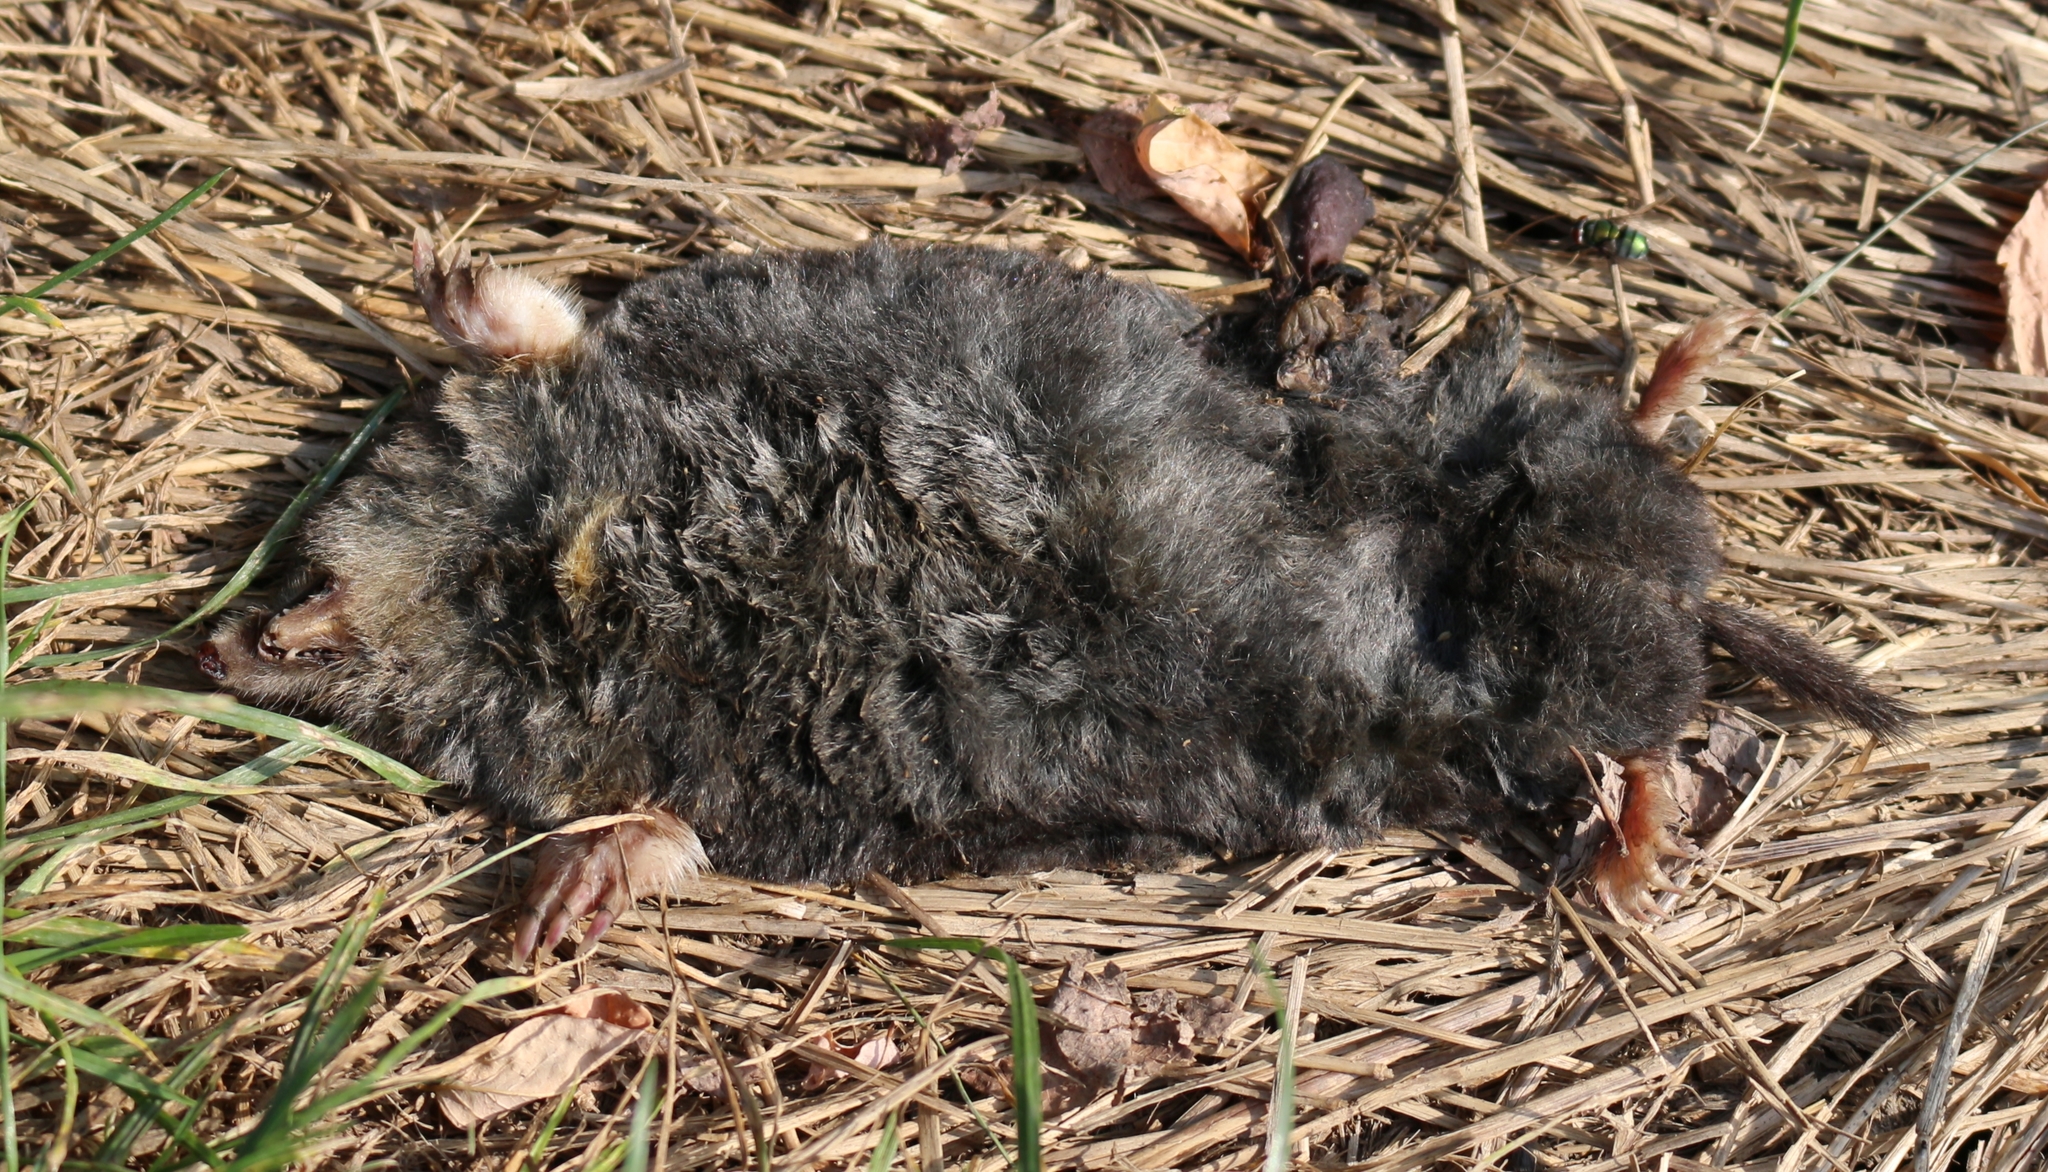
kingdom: Animalia
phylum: Chordata
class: Mammalia
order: Soricomorpha
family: Talpidae
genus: Talpa
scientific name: Talpa caucasica
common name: Caucasian mole
